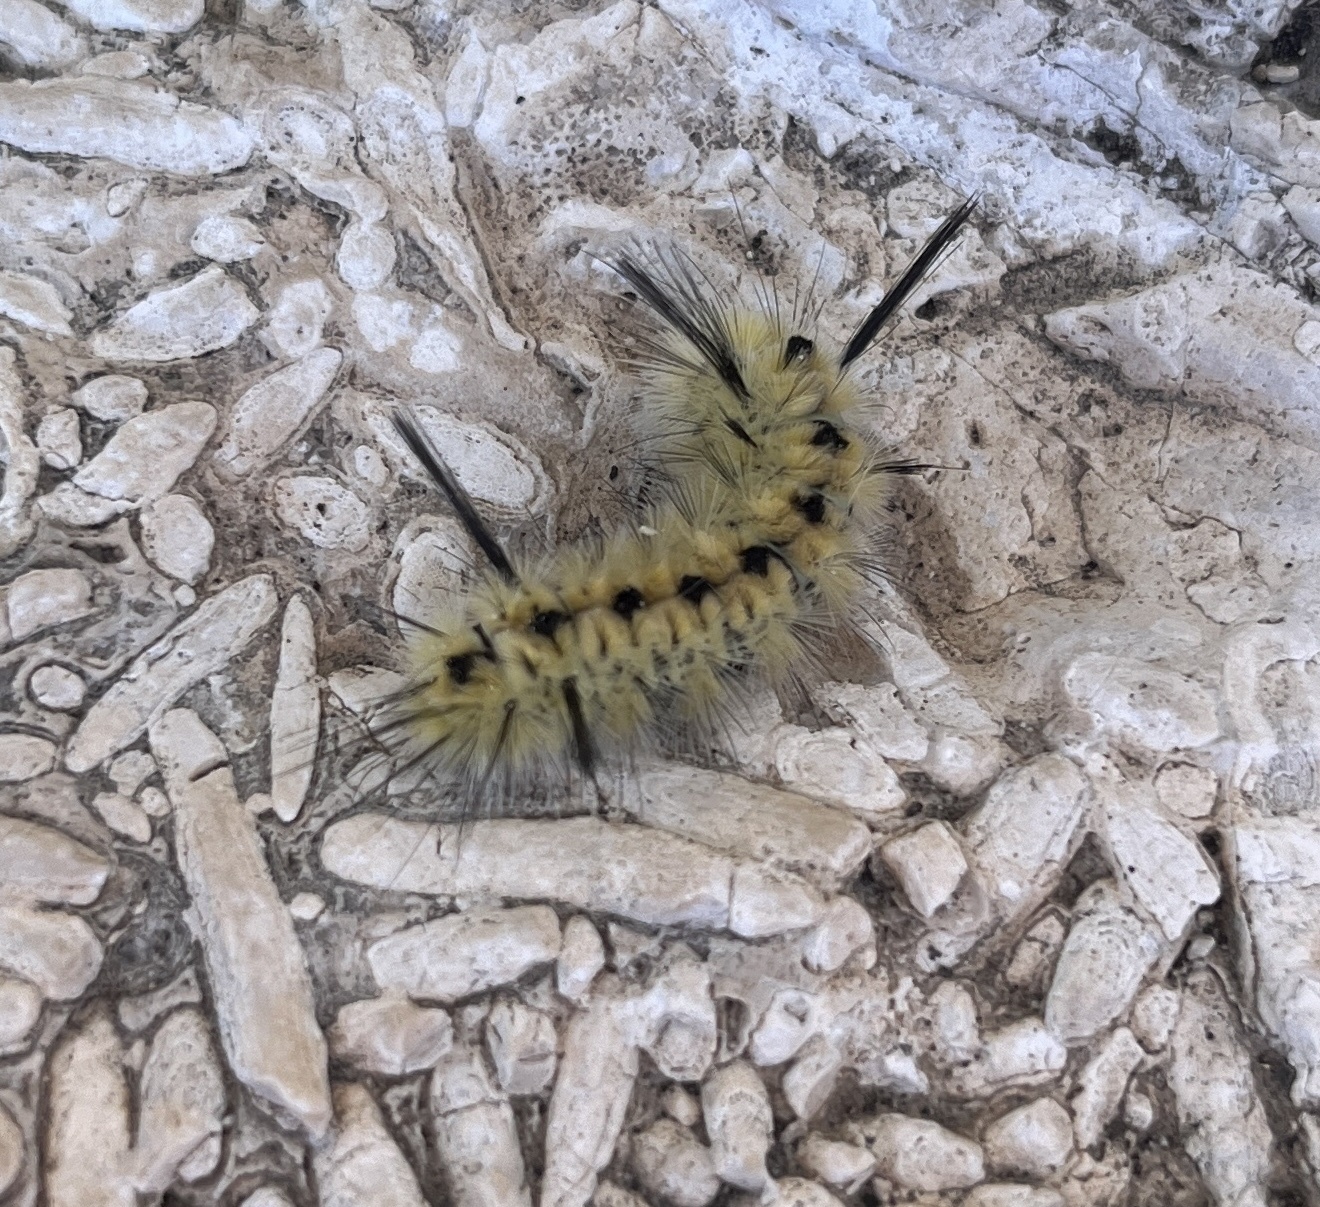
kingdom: Animalia
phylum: Arthropoda
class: Insecta
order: Lepidoptera
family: Erebidae
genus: Lophocampa
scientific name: Lophocampa mixta
